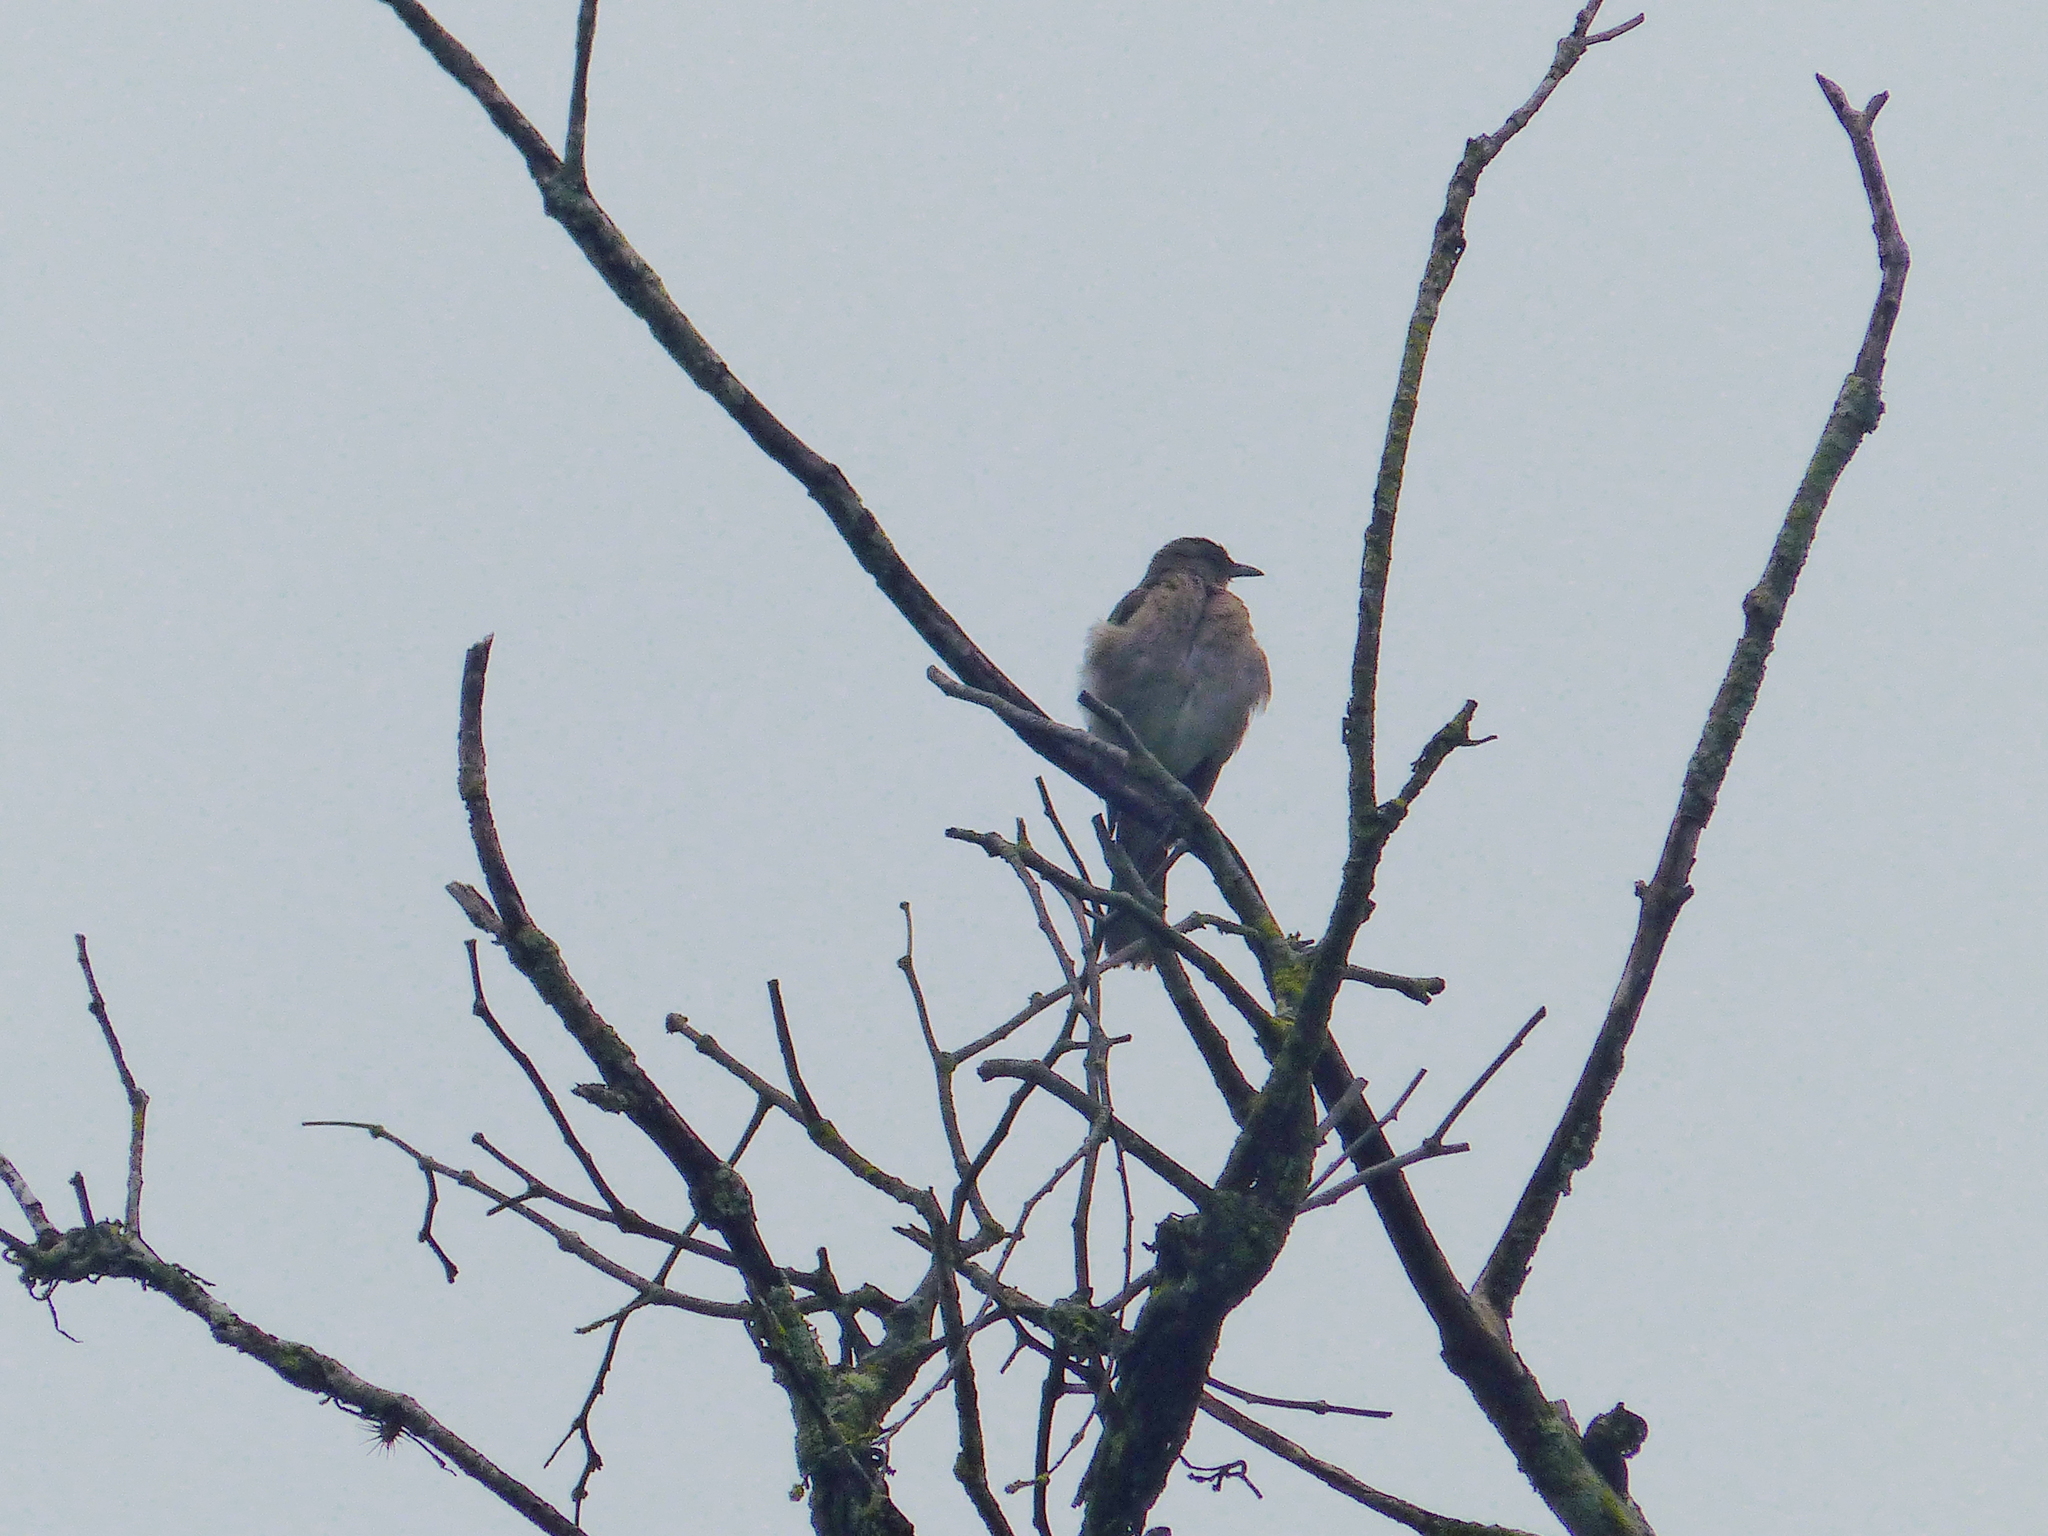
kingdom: Animalia
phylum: Chordata
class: Aves
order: Passeriformes
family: Turdidae
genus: Turdus
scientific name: Turdus ignobilis
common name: Black-billed thrush
